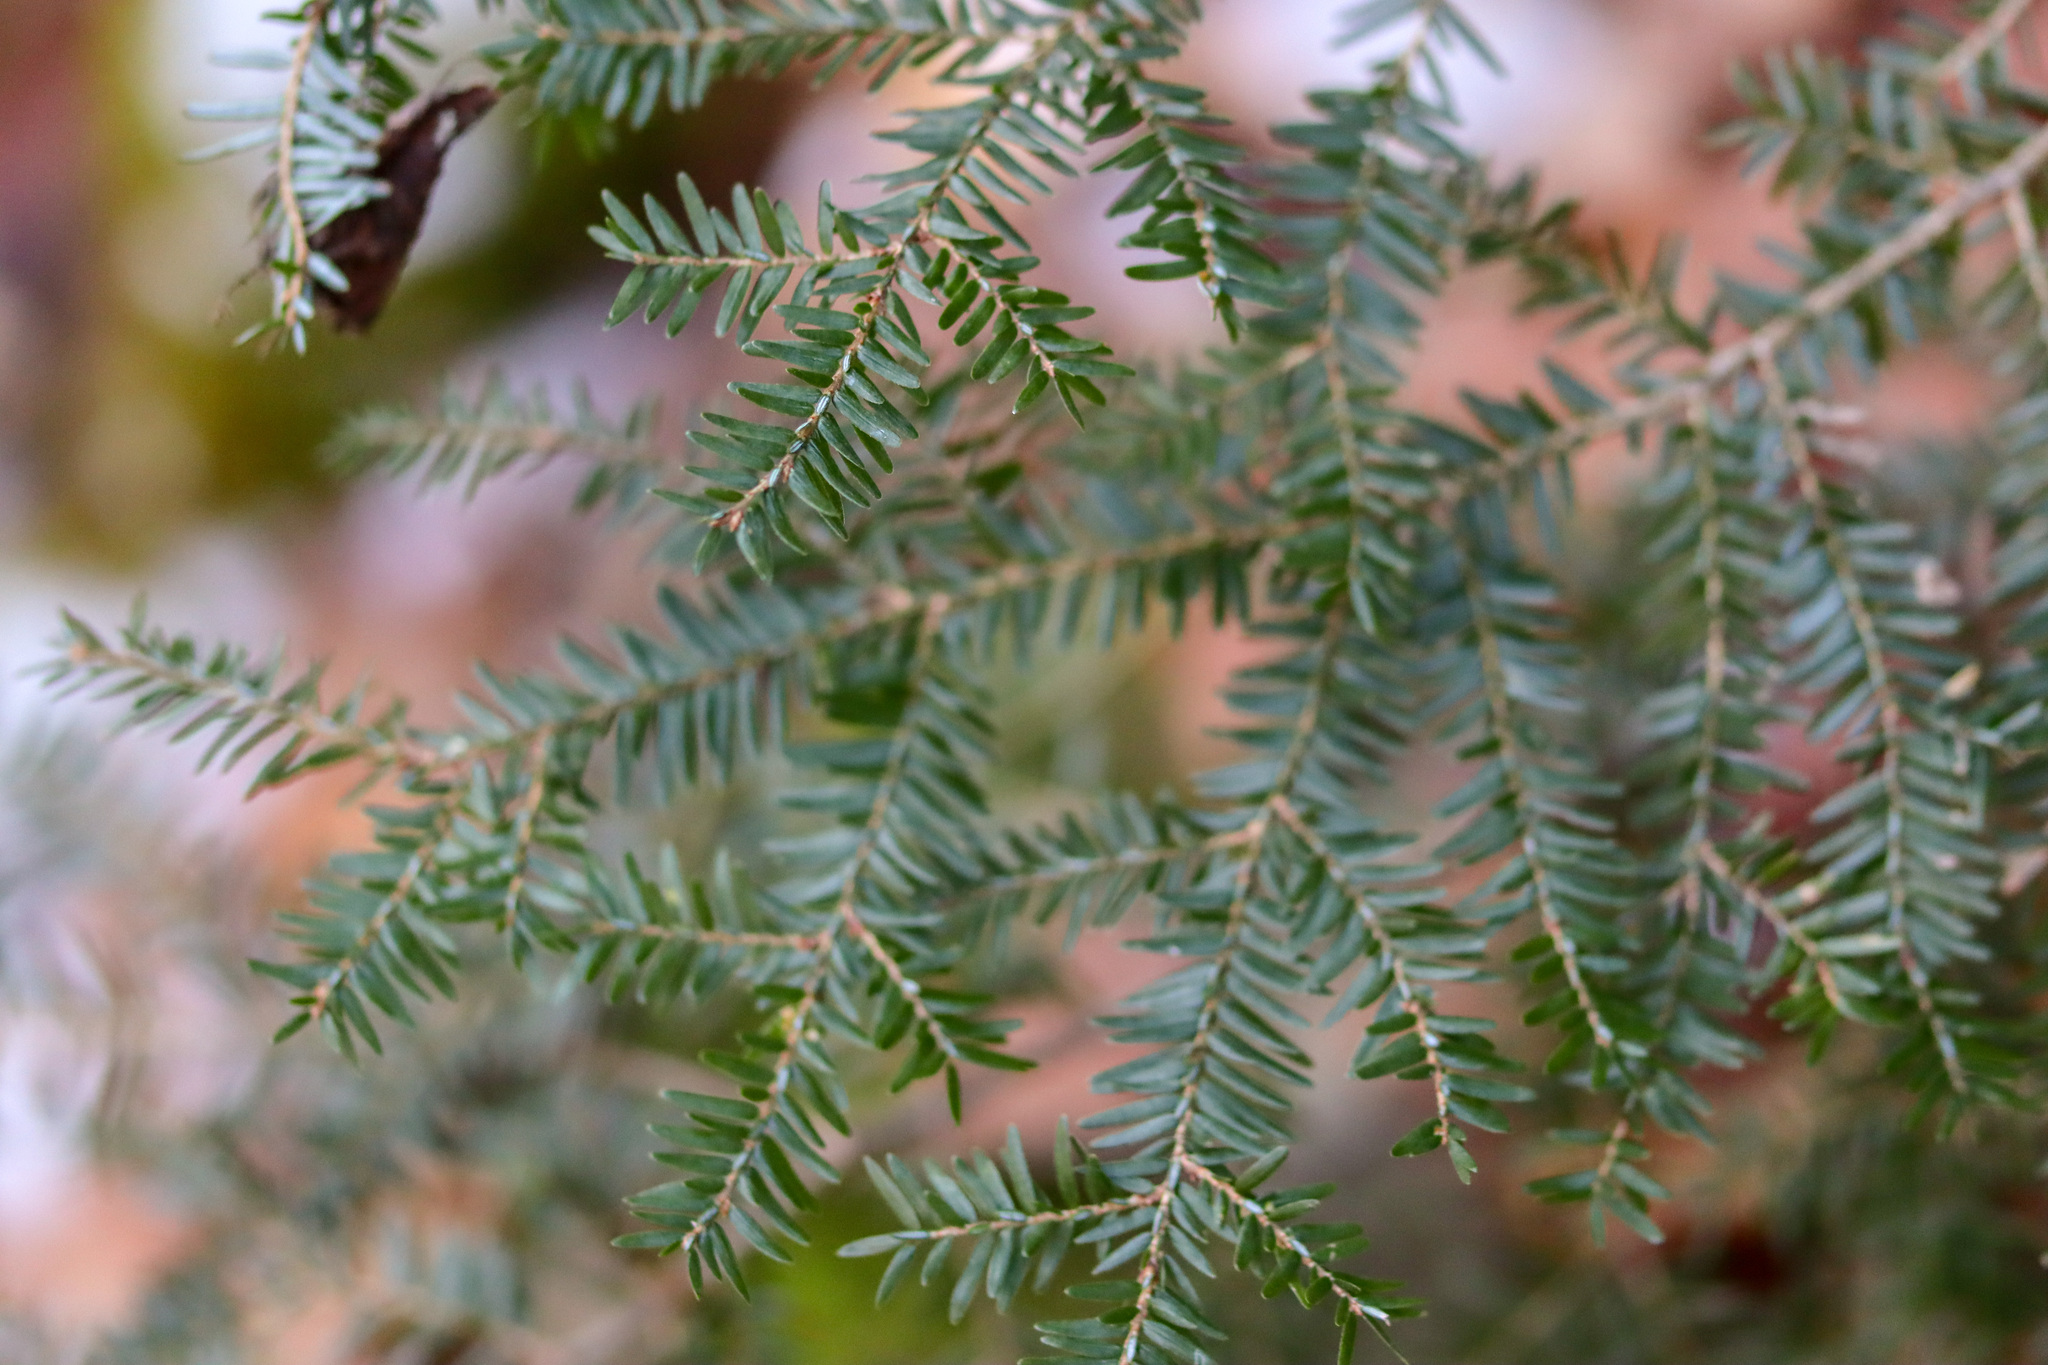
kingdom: Plantae
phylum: Tracheophyta
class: Pinopsida
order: Pinales
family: Pinaceae
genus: Tsuga
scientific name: Tsuga canadensis
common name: Eastern hemlock
